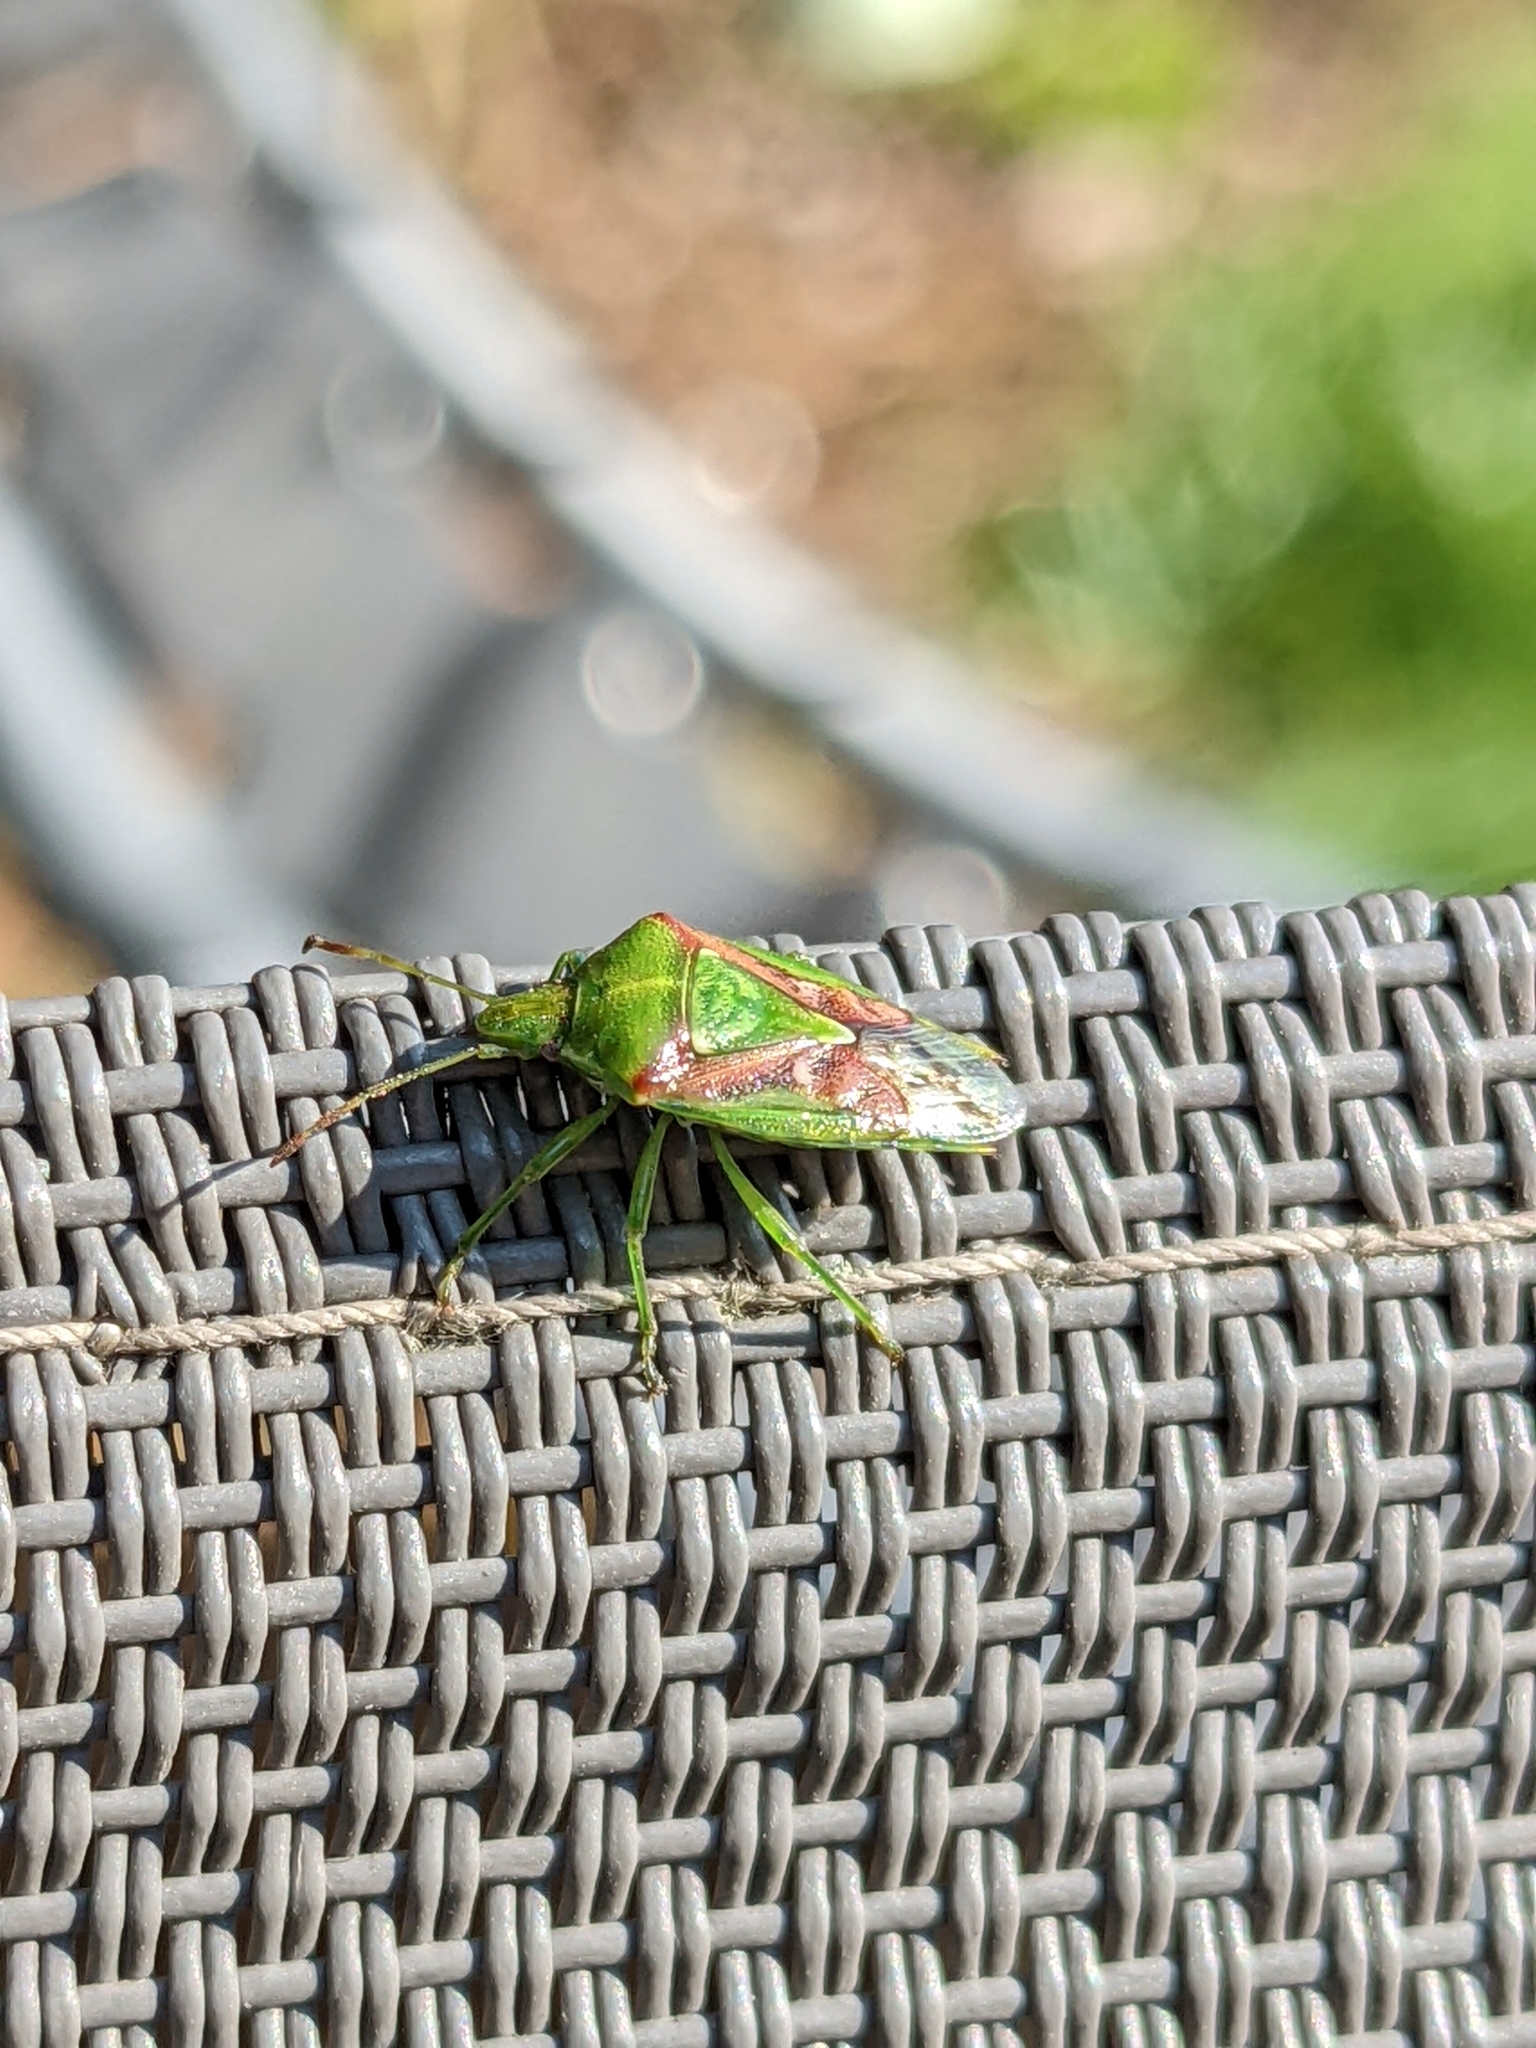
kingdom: Animalia
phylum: Arthropoda
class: Insecta
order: Hemiptera
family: Acanthosomatidae
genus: Cyphostethus
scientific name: Cyphostethus tristriatus
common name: Juniper shieldbug
